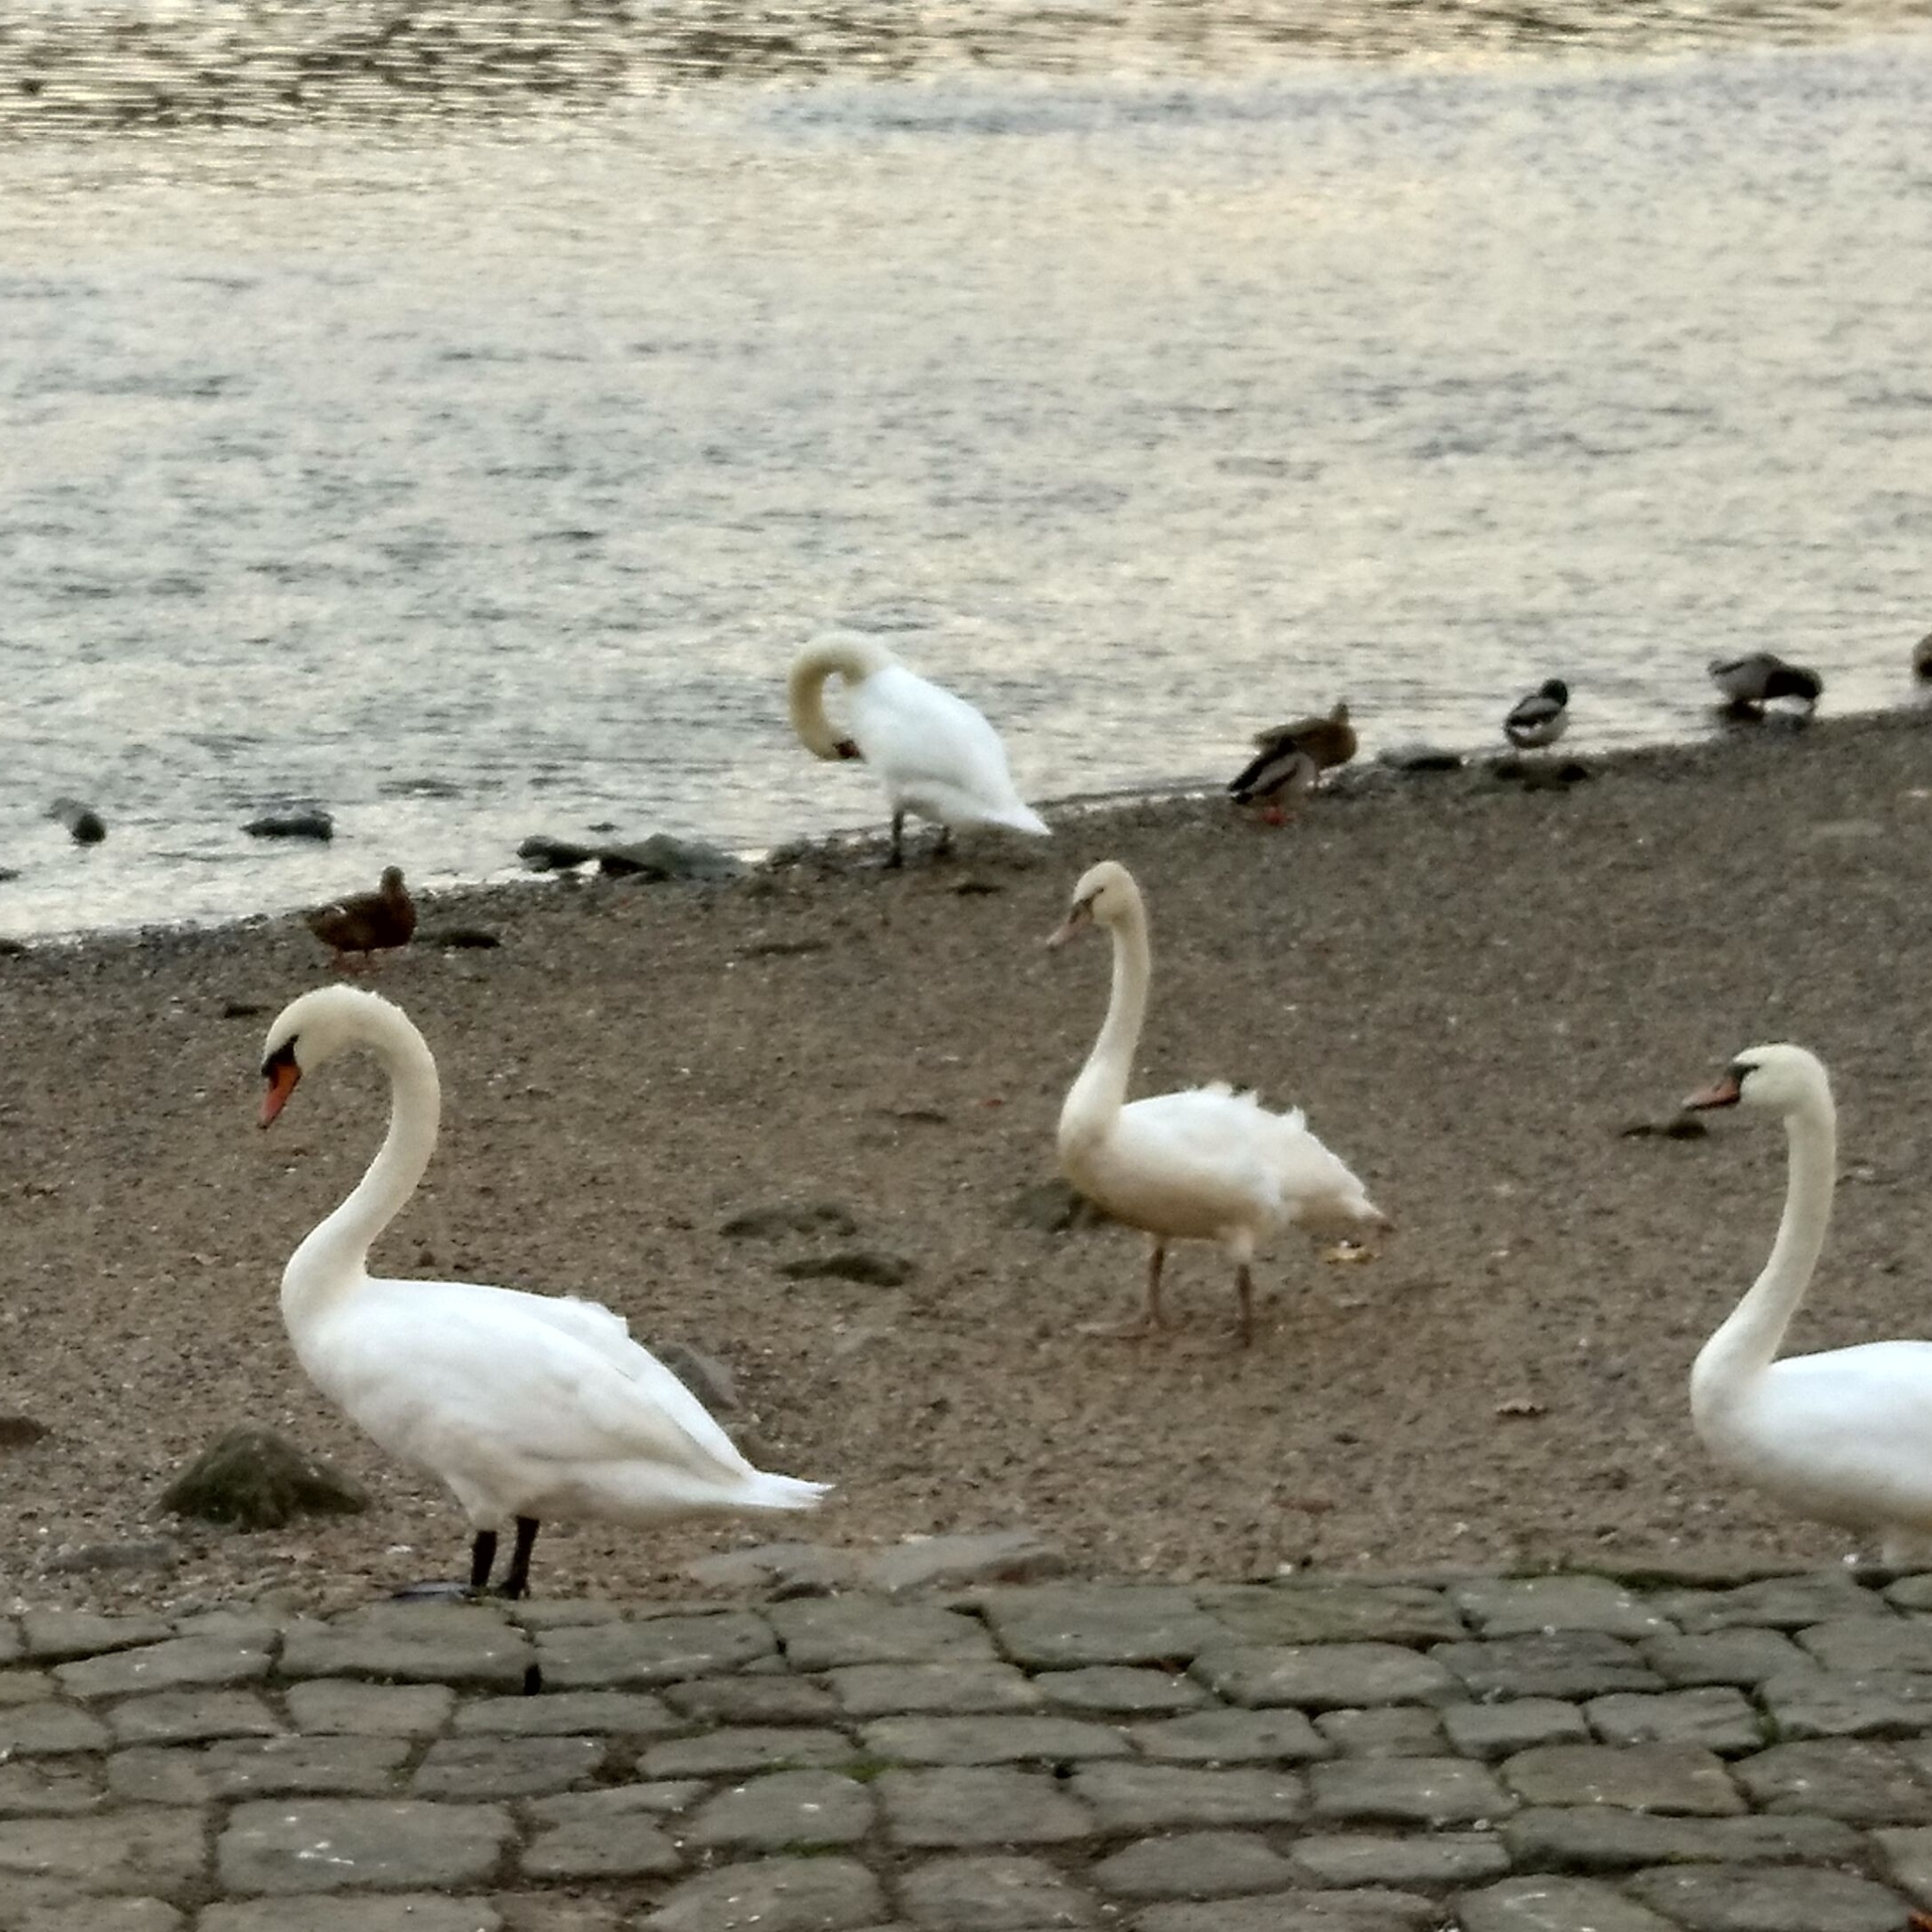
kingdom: Animalia
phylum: Chordata
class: Aves
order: Anseriformes
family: Anatidae
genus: Cygnus
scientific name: Cygnus olor
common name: Mute swan
